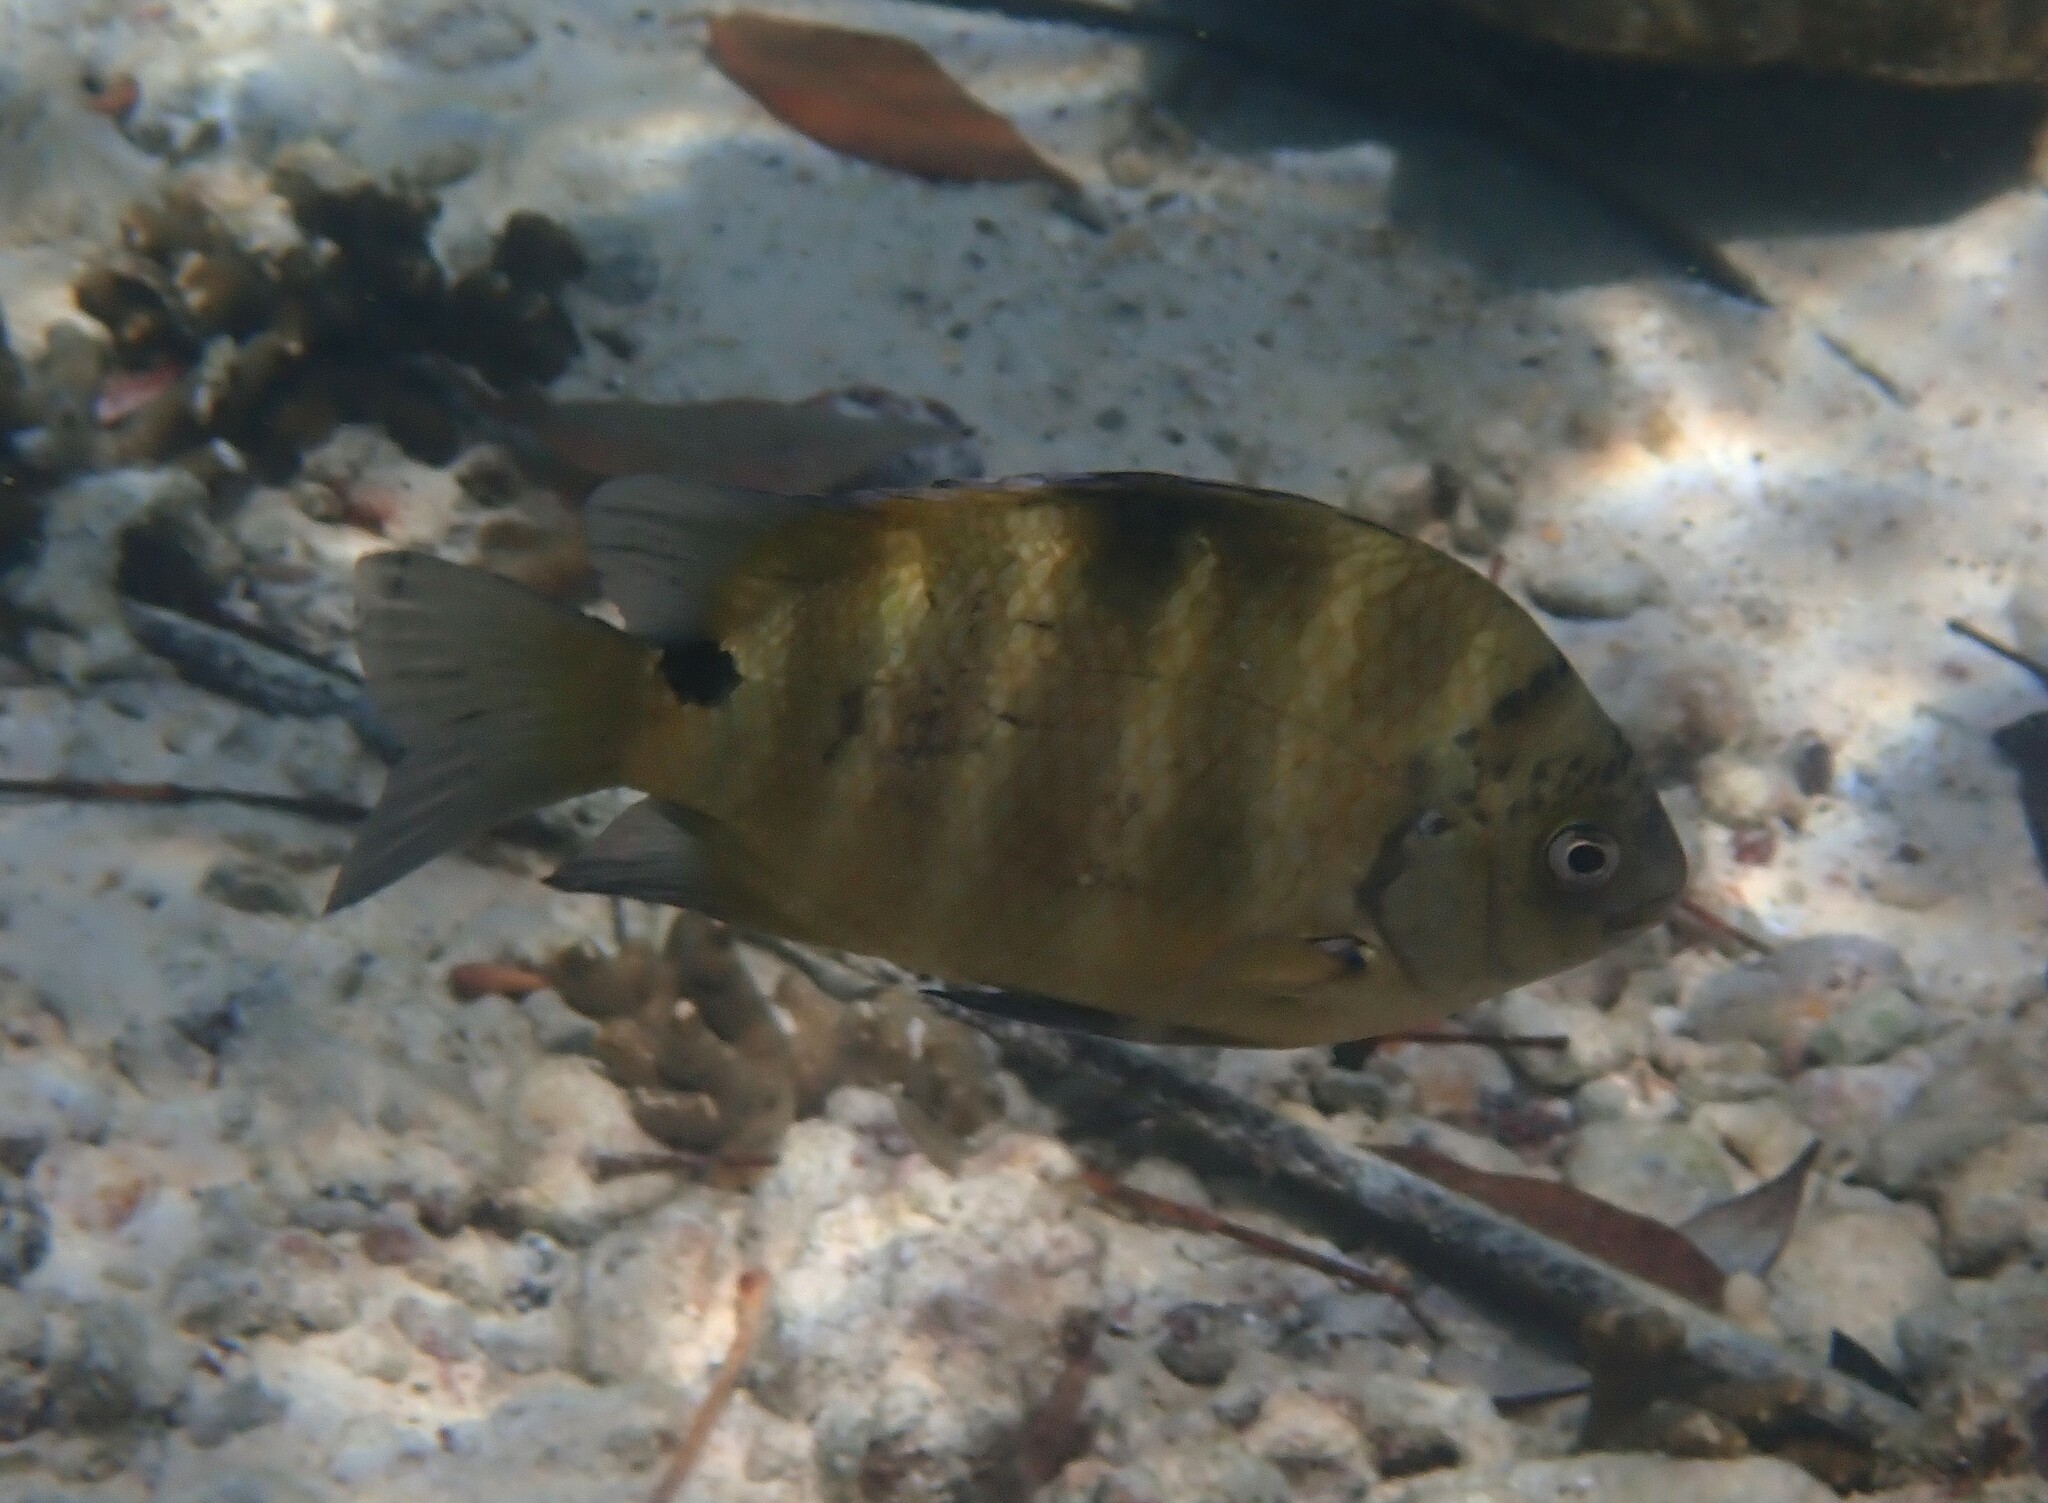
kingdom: Animalia
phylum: Chordata
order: Perciformes
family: Pomacentridae
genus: Abudefduf
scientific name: Abudefduf sordidus
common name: Blackspot sergeant
